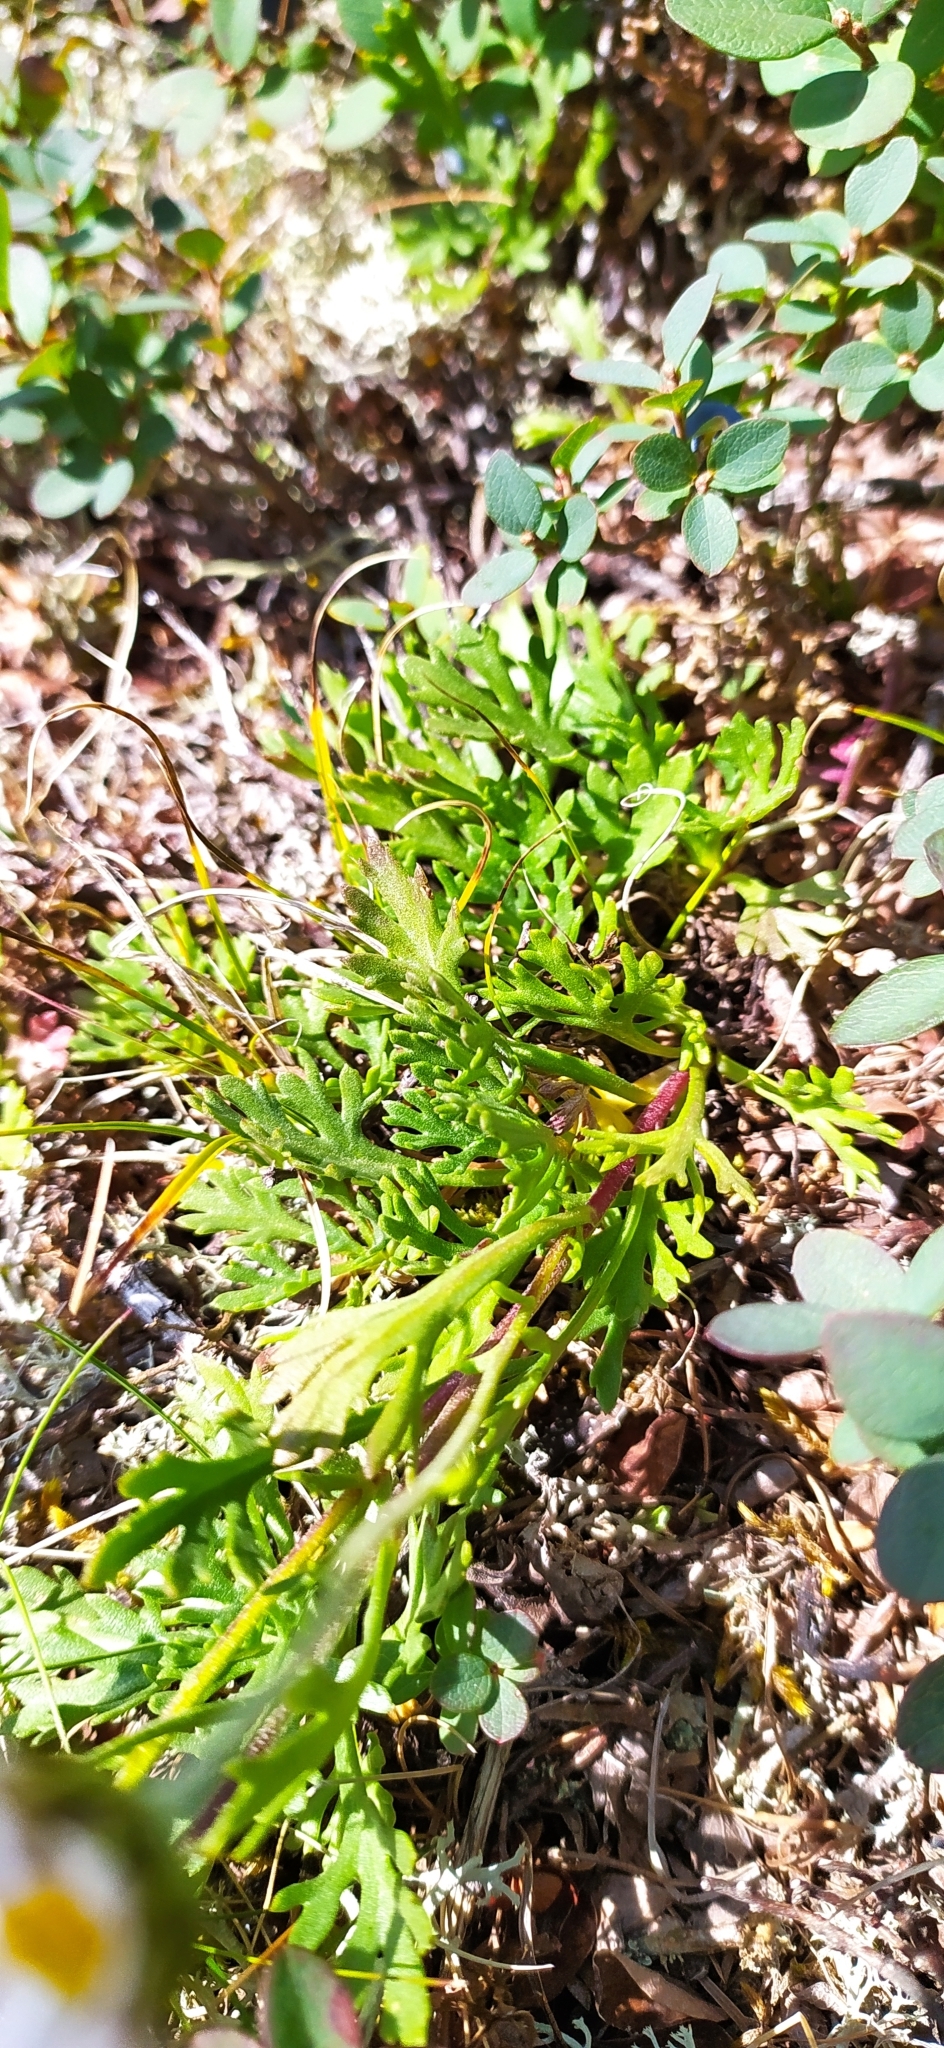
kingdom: Plantae
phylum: Tracheophyta
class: Magnoliopsida
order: Asterales
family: Asteraceae
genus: Chrysanthemum
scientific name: Chrysanthemum zawadzkii
